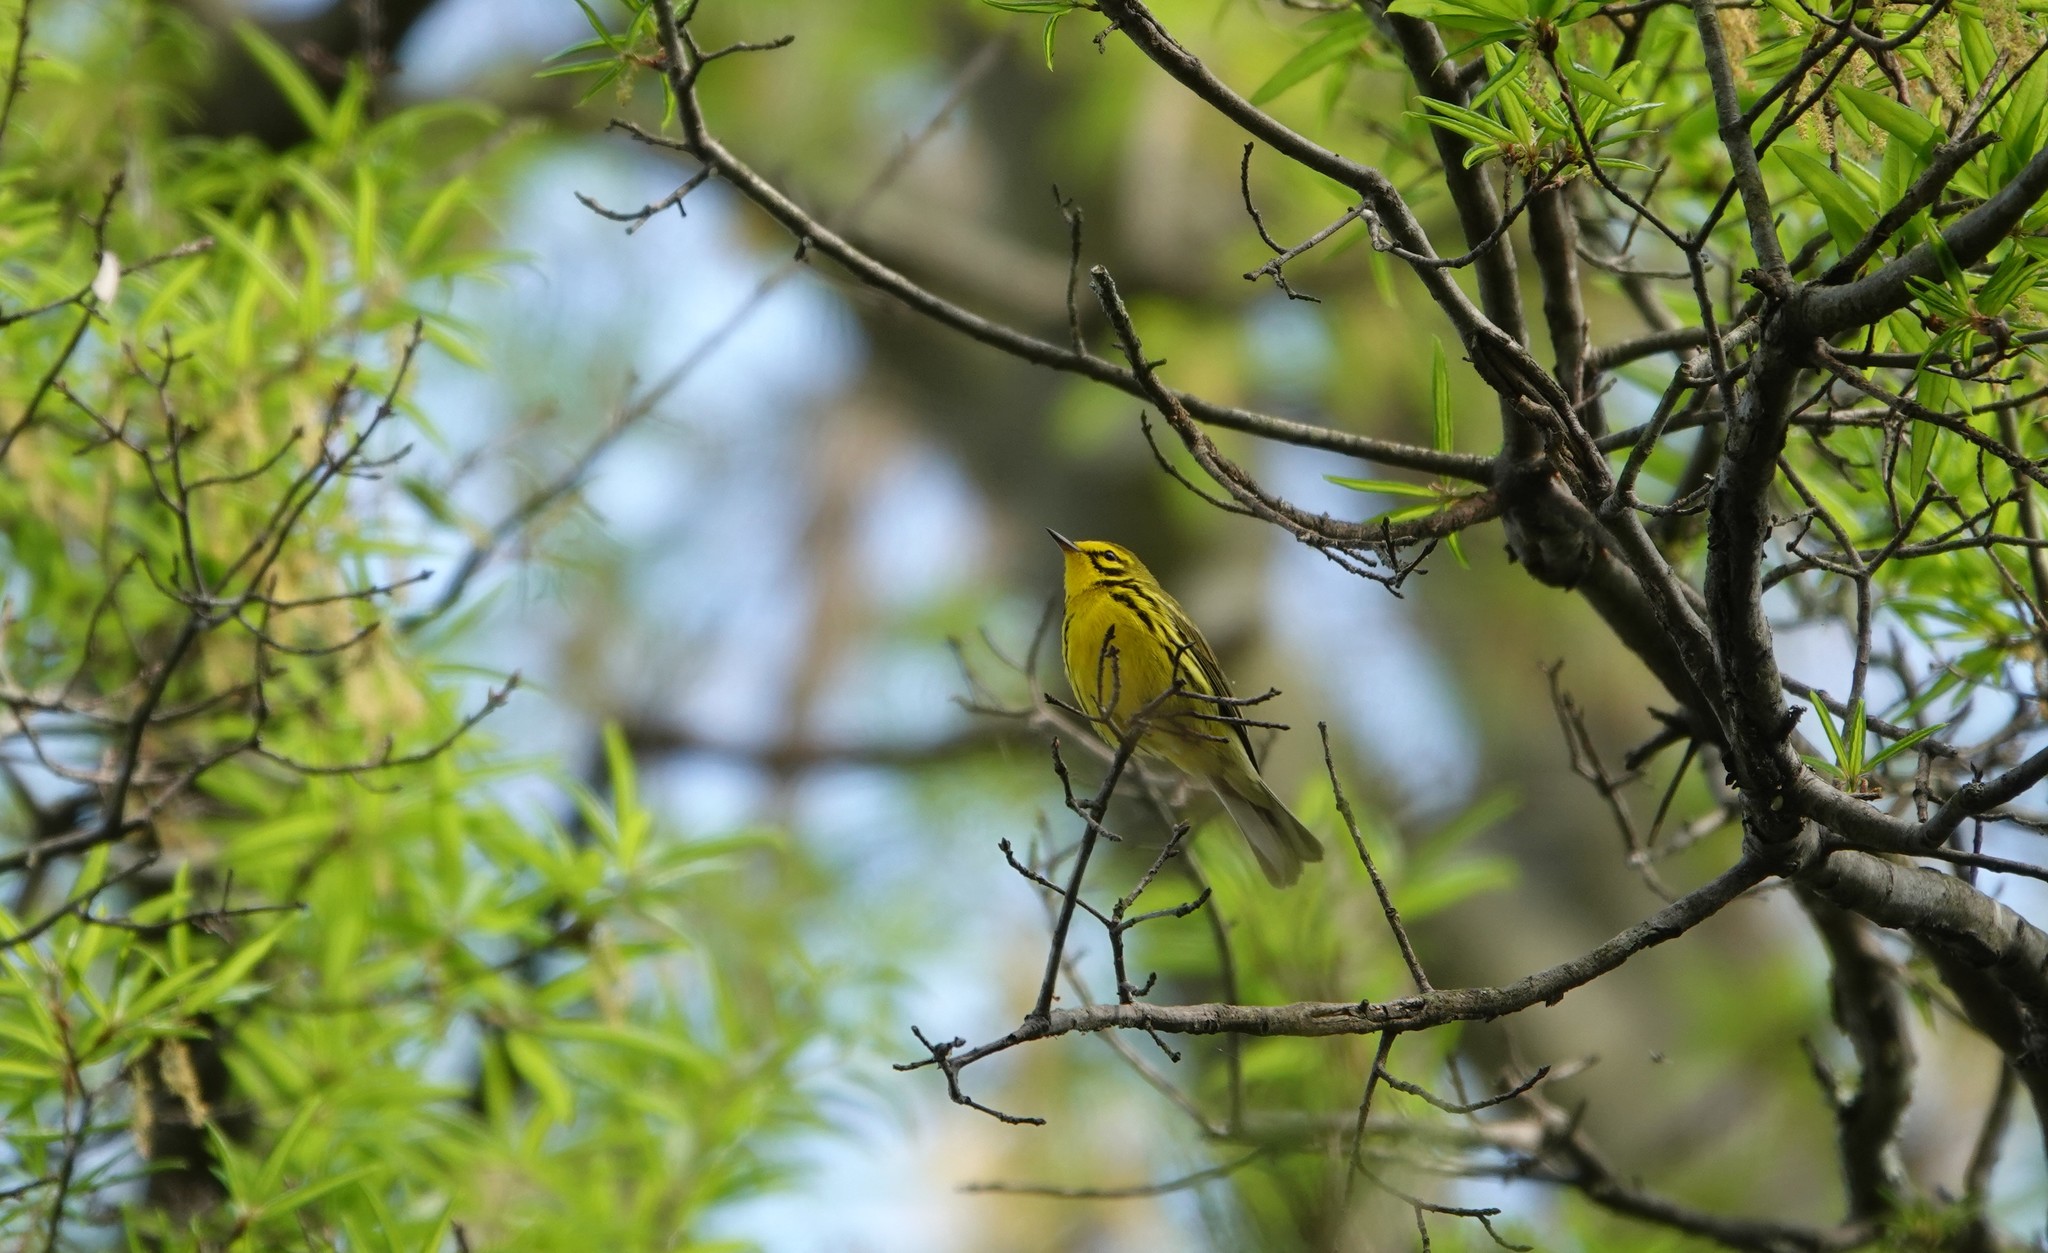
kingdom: Animalia
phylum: Chordata
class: Aves
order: Passeriformes
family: Parulidae
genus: Setophaga
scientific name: Setophaga discolor
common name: Prairie warbler
